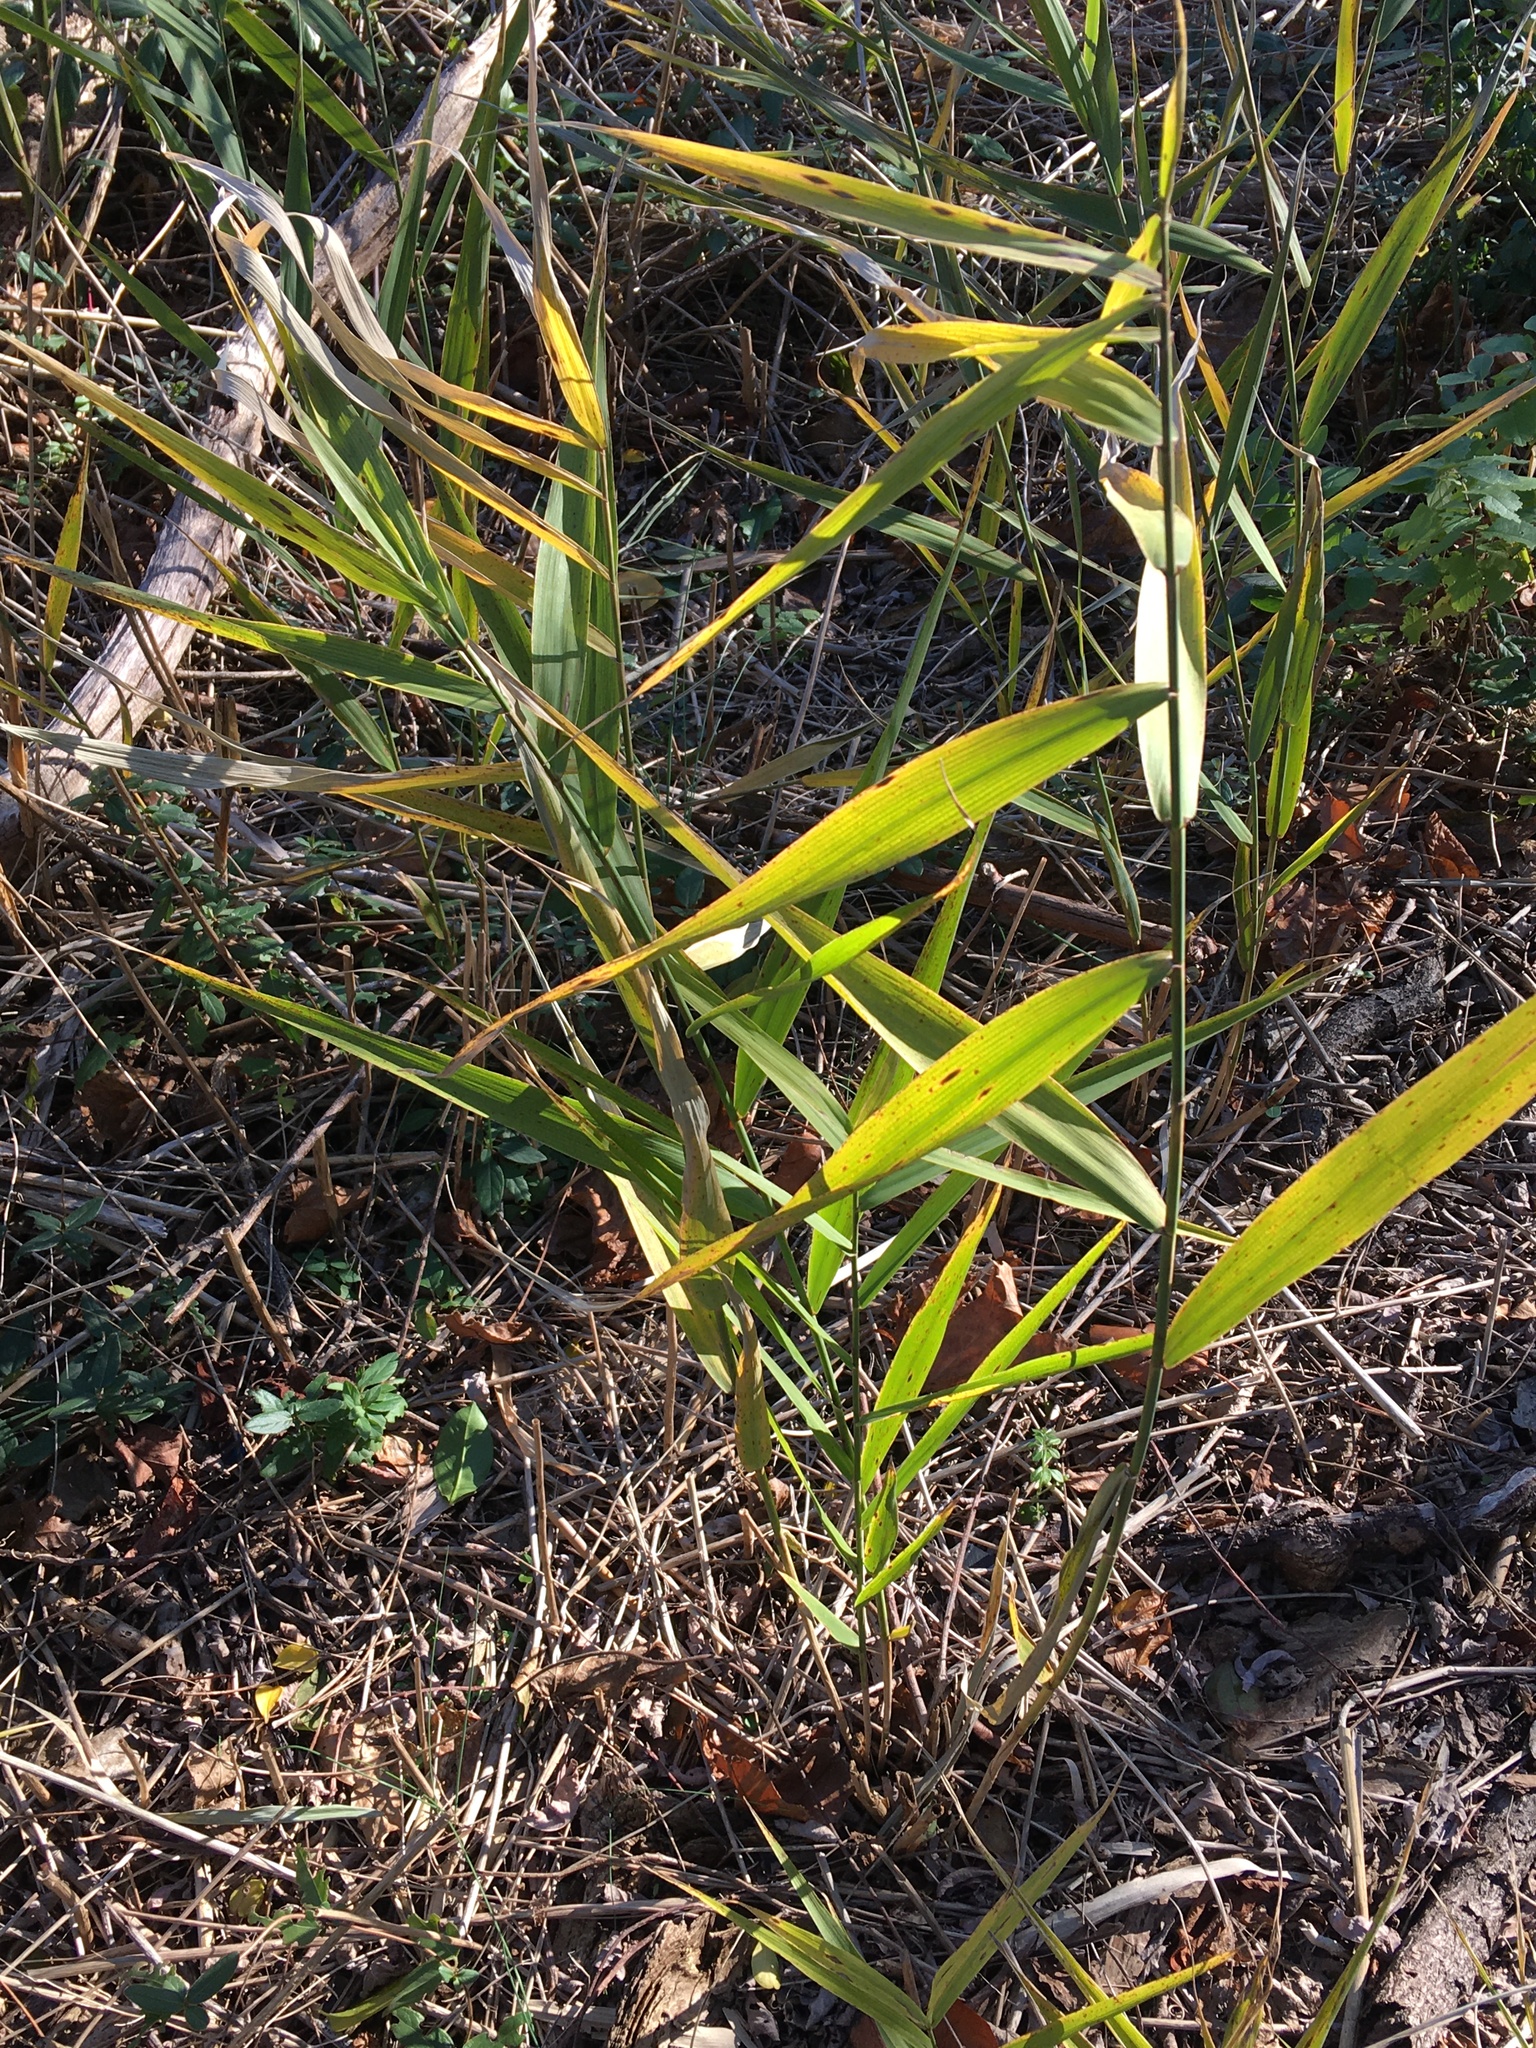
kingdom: Plantae
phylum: Tracheophyta
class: Liliopsida
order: Poales
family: Poaceae
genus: Phragmites
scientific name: Phragmites australis
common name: Common reed
